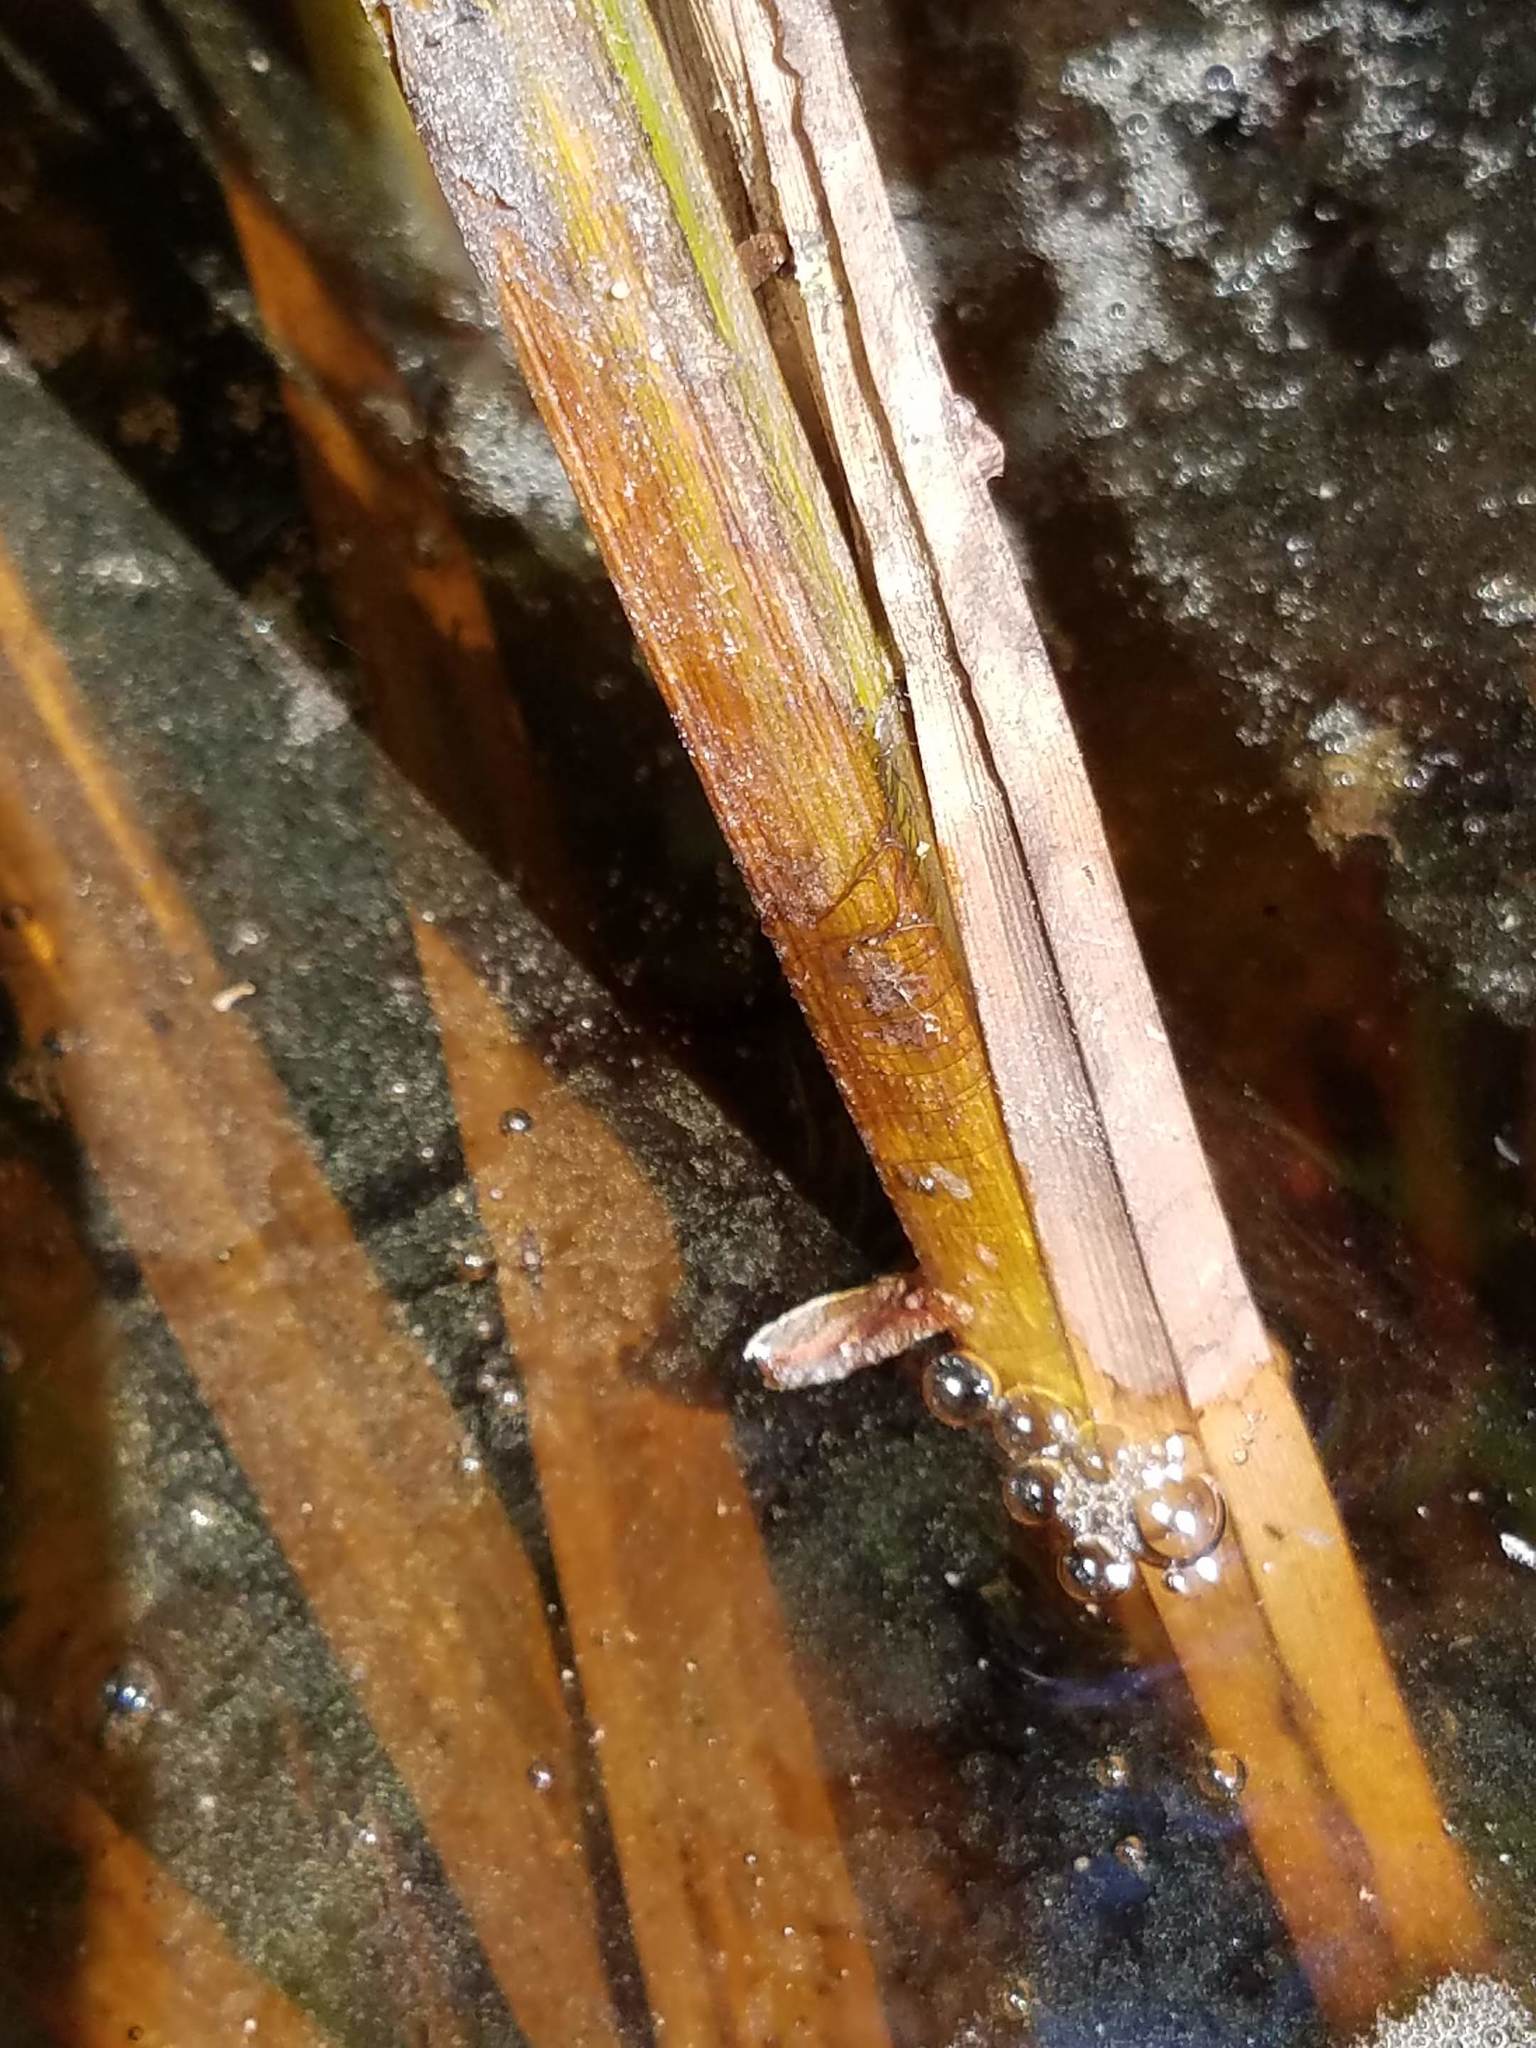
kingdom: Plantae
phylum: Tracheophyta
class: Liliopsida
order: Poales
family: Cyperaceae
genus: Carex
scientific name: Carex lacustris
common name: Common lake sedge
